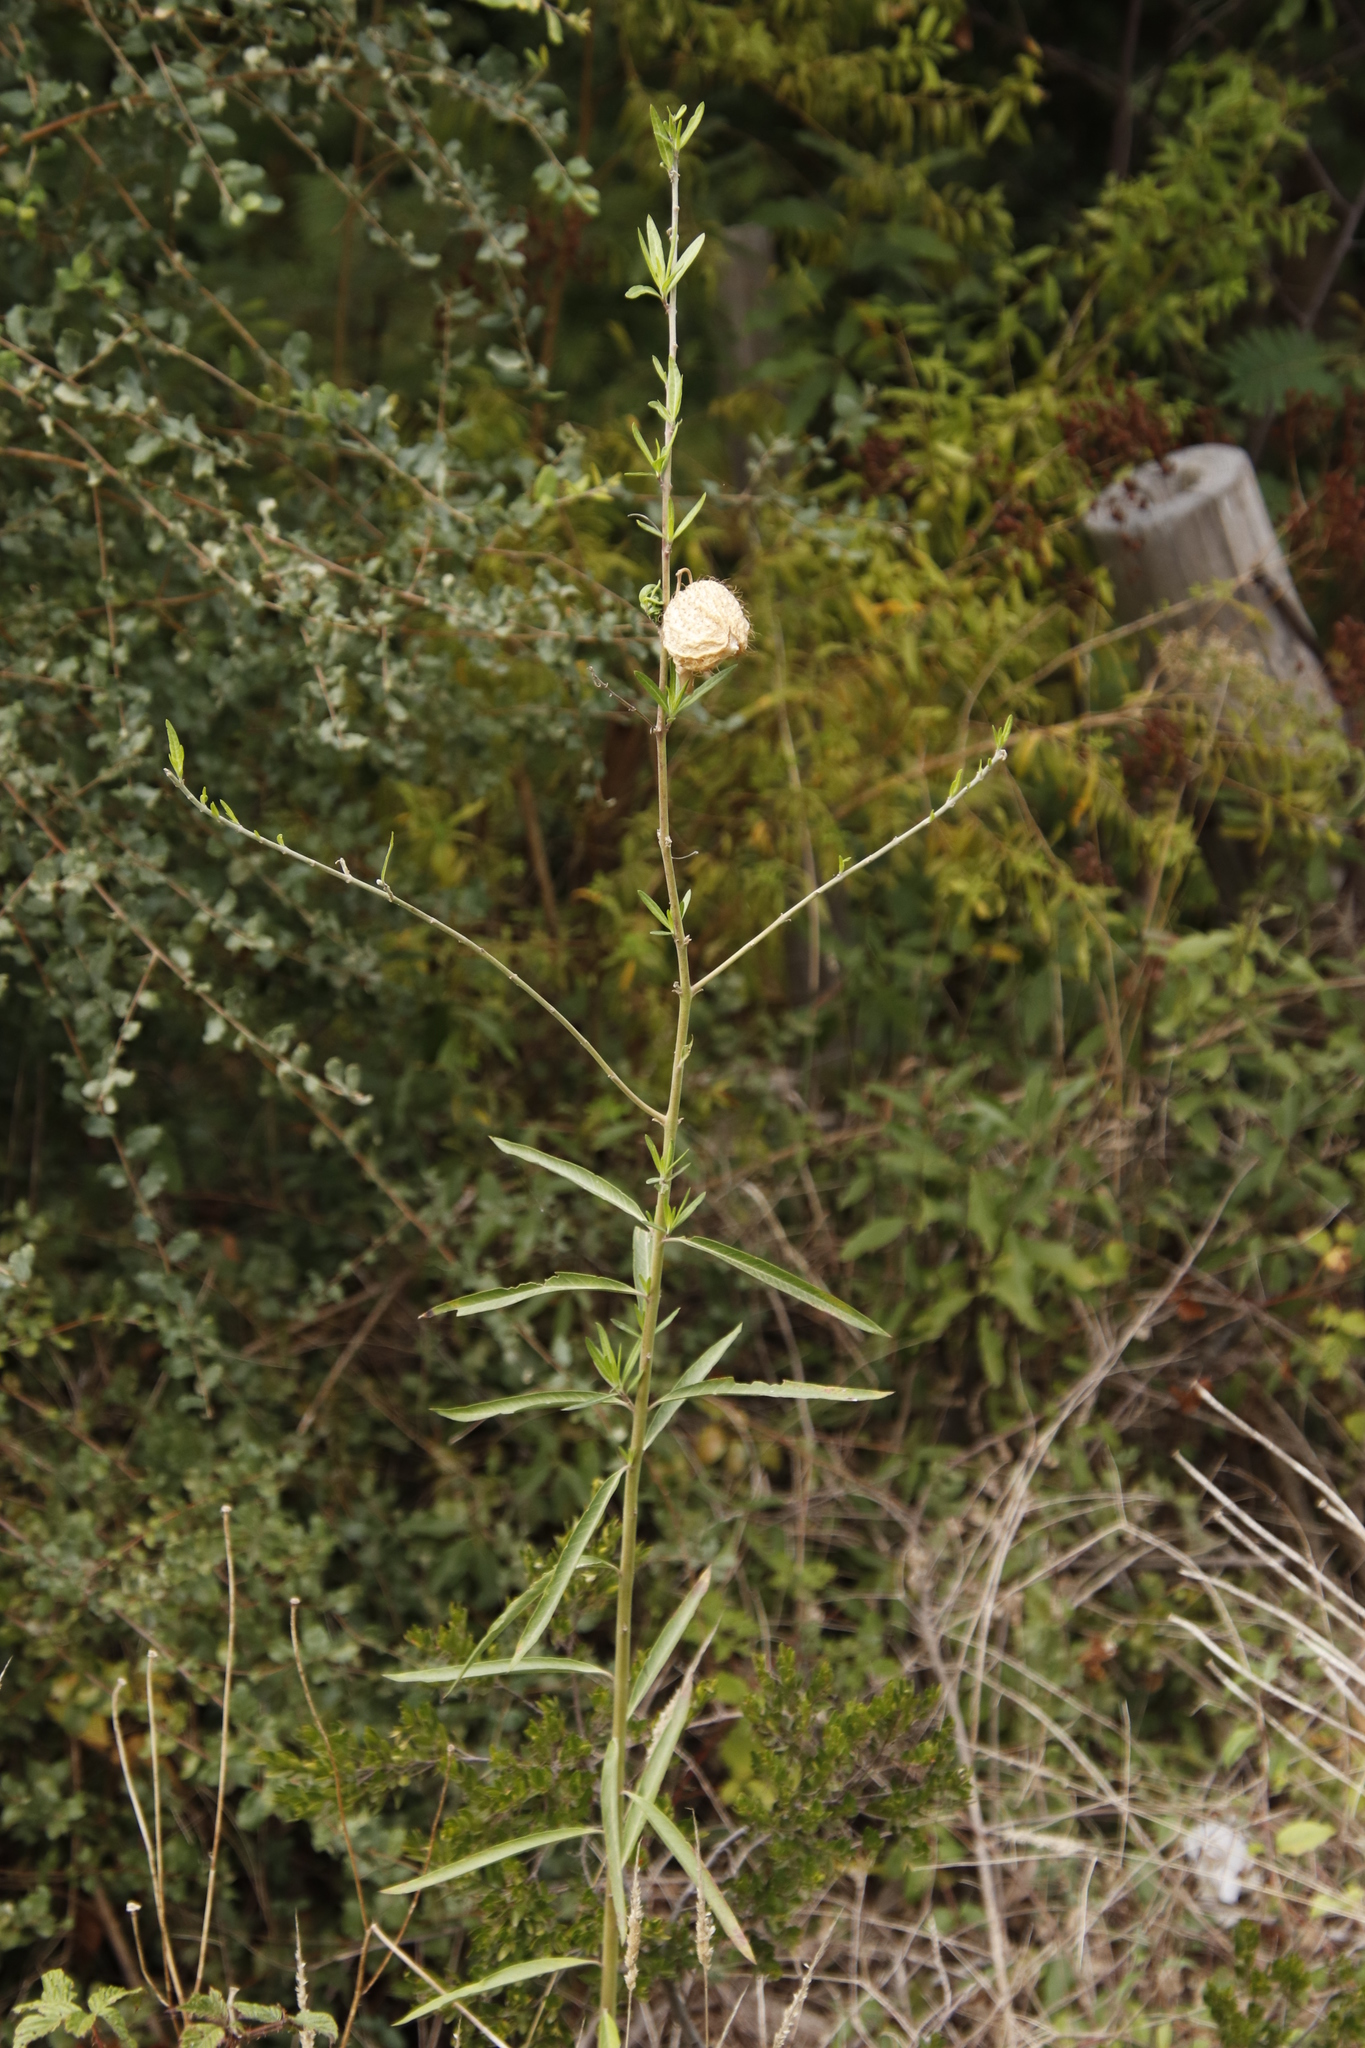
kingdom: Plantae
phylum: Tracheophyta
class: Magnoliopsida
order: Gentianales
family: Apocynaceae
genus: Gomphocarpus
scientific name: Gomphocarpus physocarpus
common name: Balloon cotton bush
